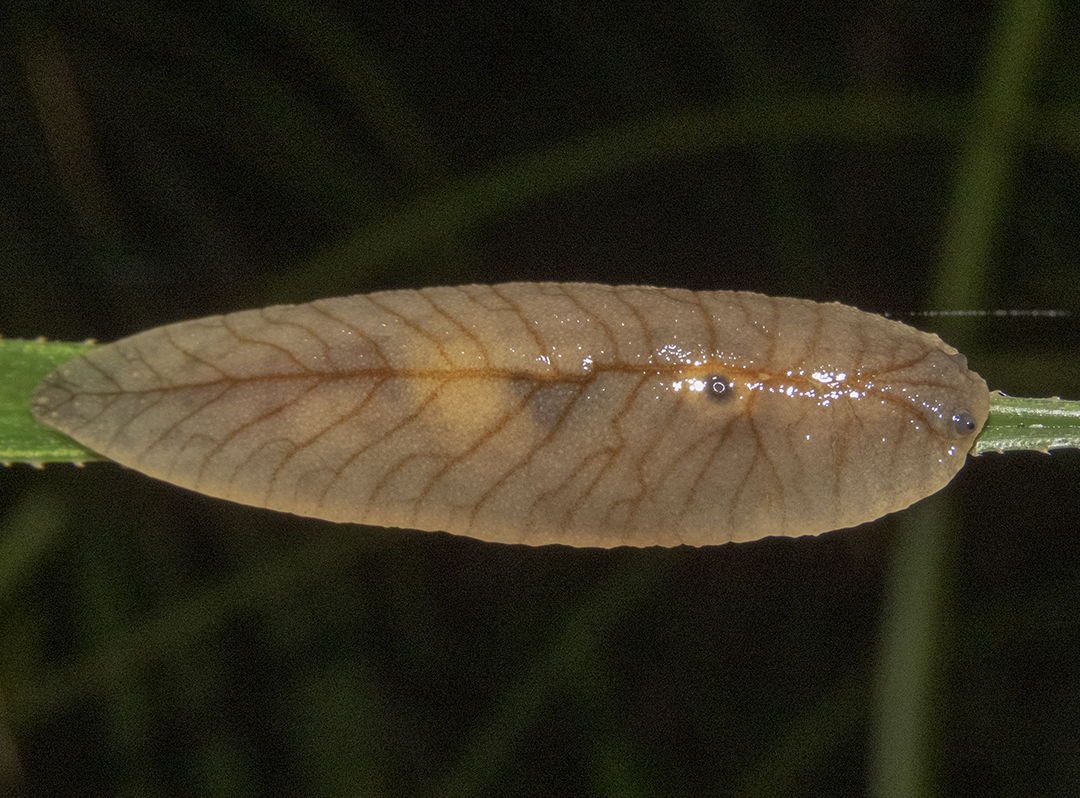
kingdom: Animalia
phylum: Mollusca
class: Gastropoda
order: Stylommatophora
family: Athoracophoridae
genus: Athoracophorus
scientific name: Athoracophorus bitentaculatus
